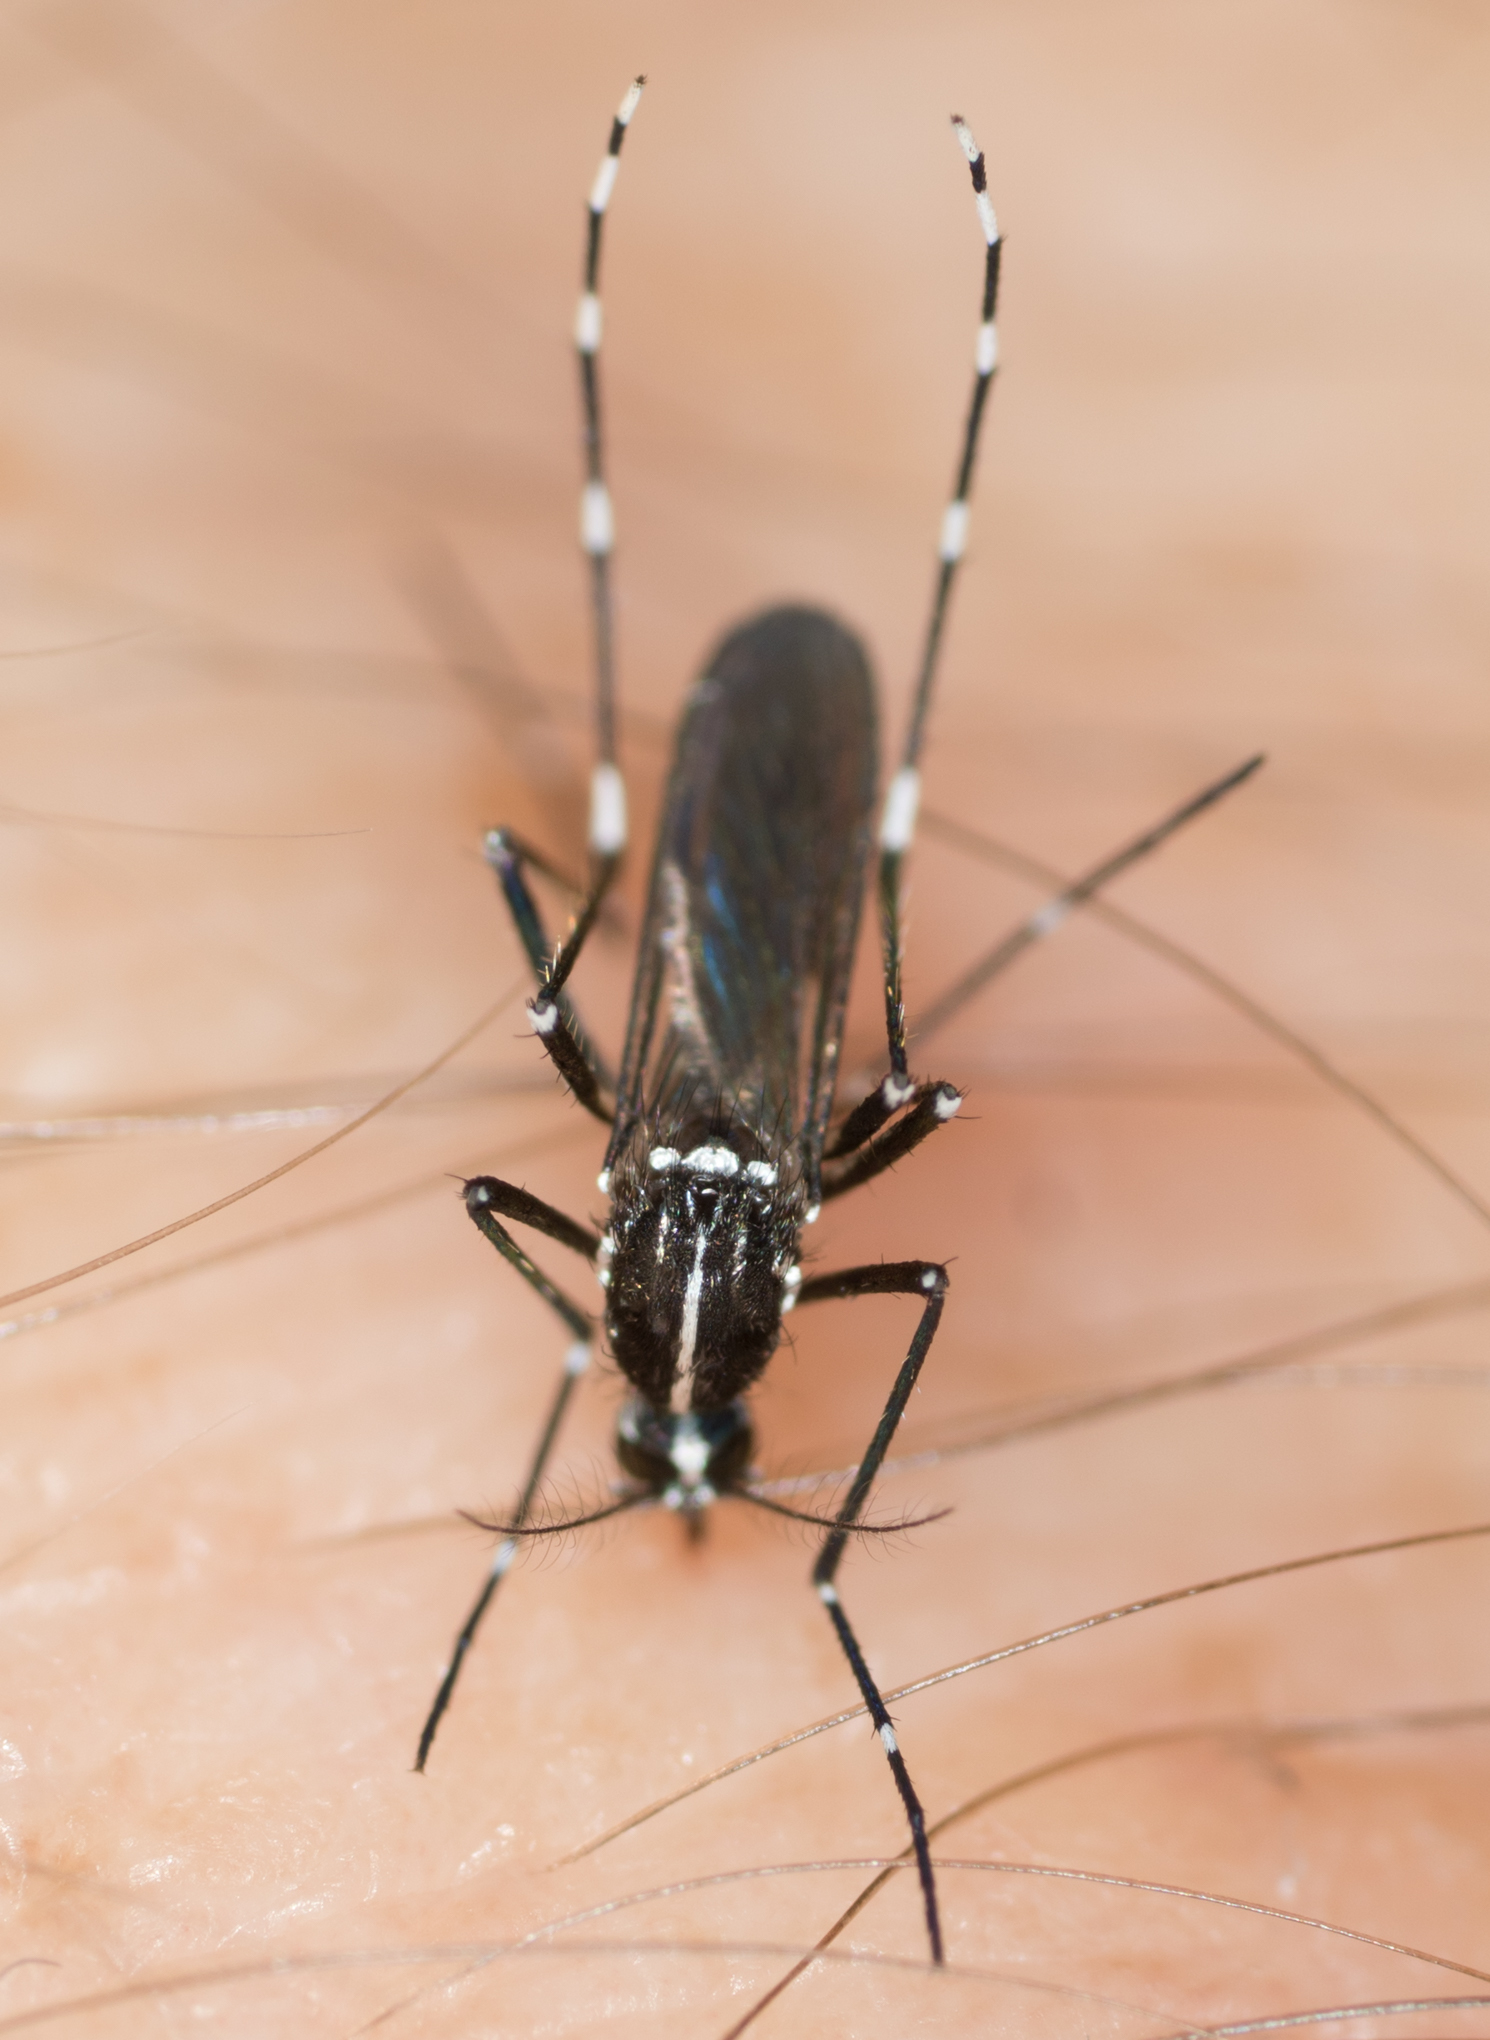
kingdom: Animalia
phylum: Arthropoda
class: Insecta
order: Diptera
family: Culicidae
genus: Aedes
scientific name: Aedes albopictus
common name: Tiger mosquito
